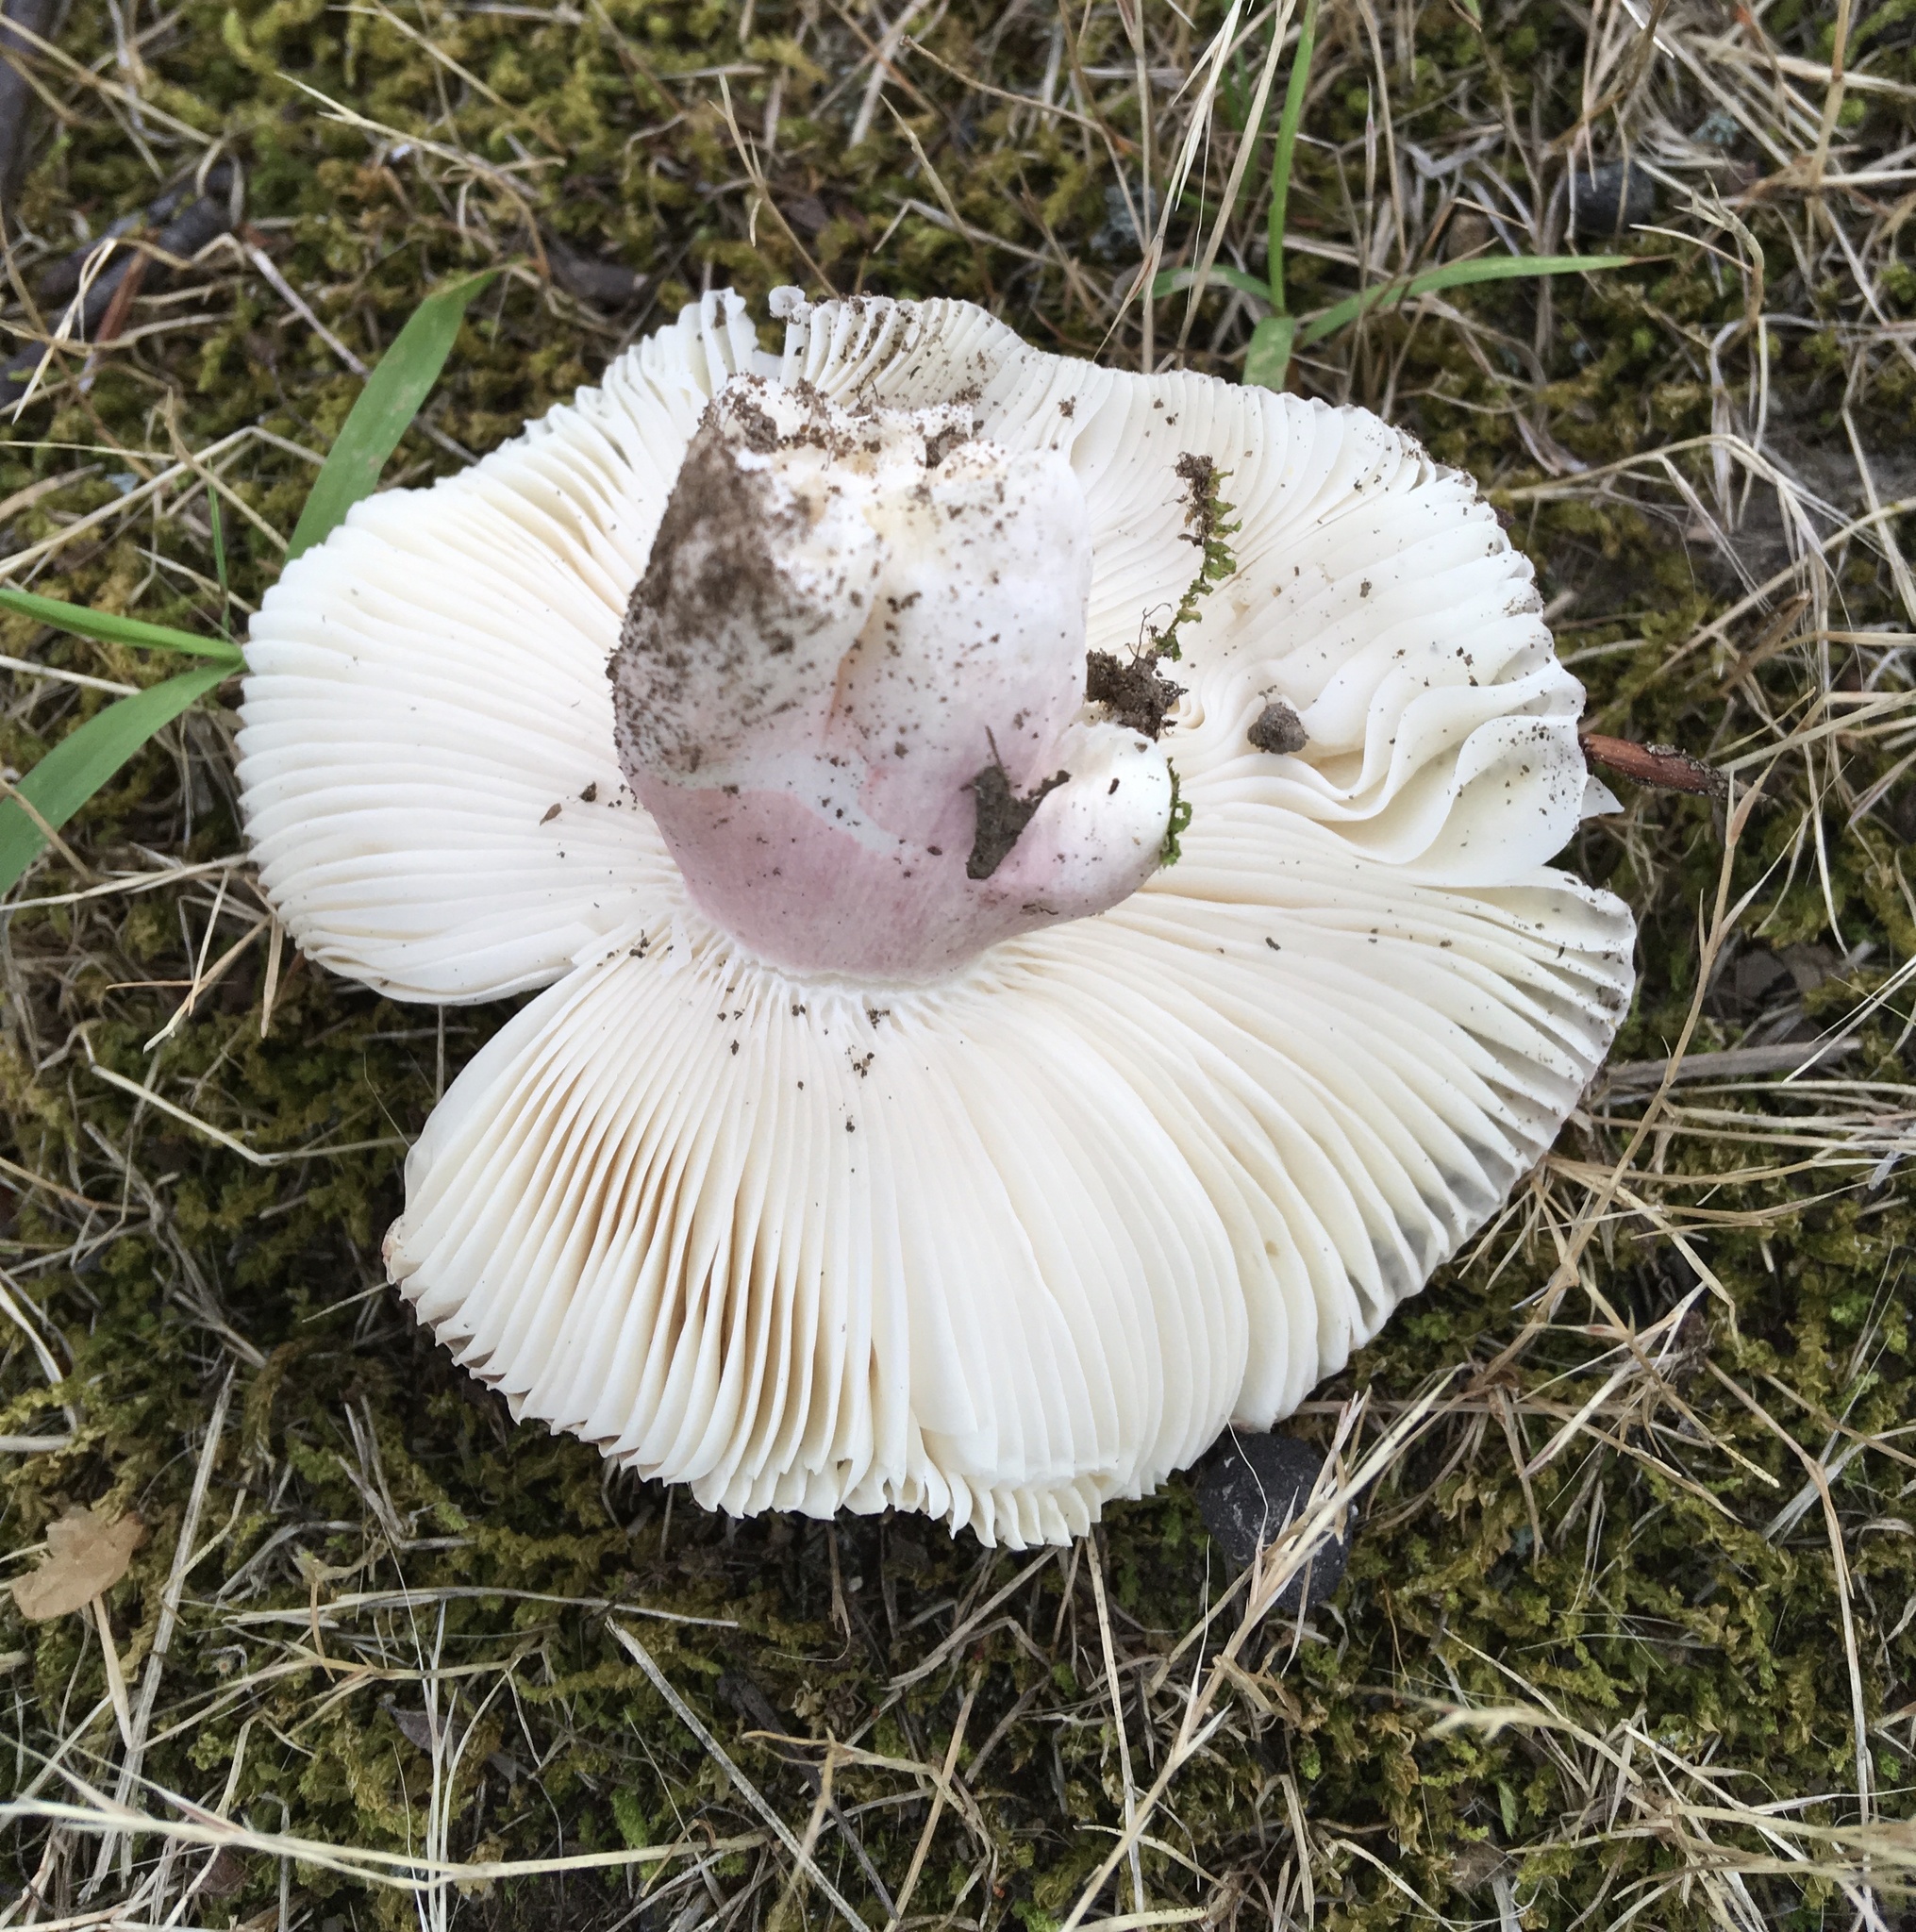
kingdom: Fungi
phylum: Basidiomycota
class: Agaricomycetes
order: Russulales
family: Russulaceae
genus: Russula
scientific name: Russula mariae
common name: Purple-bloom russula
